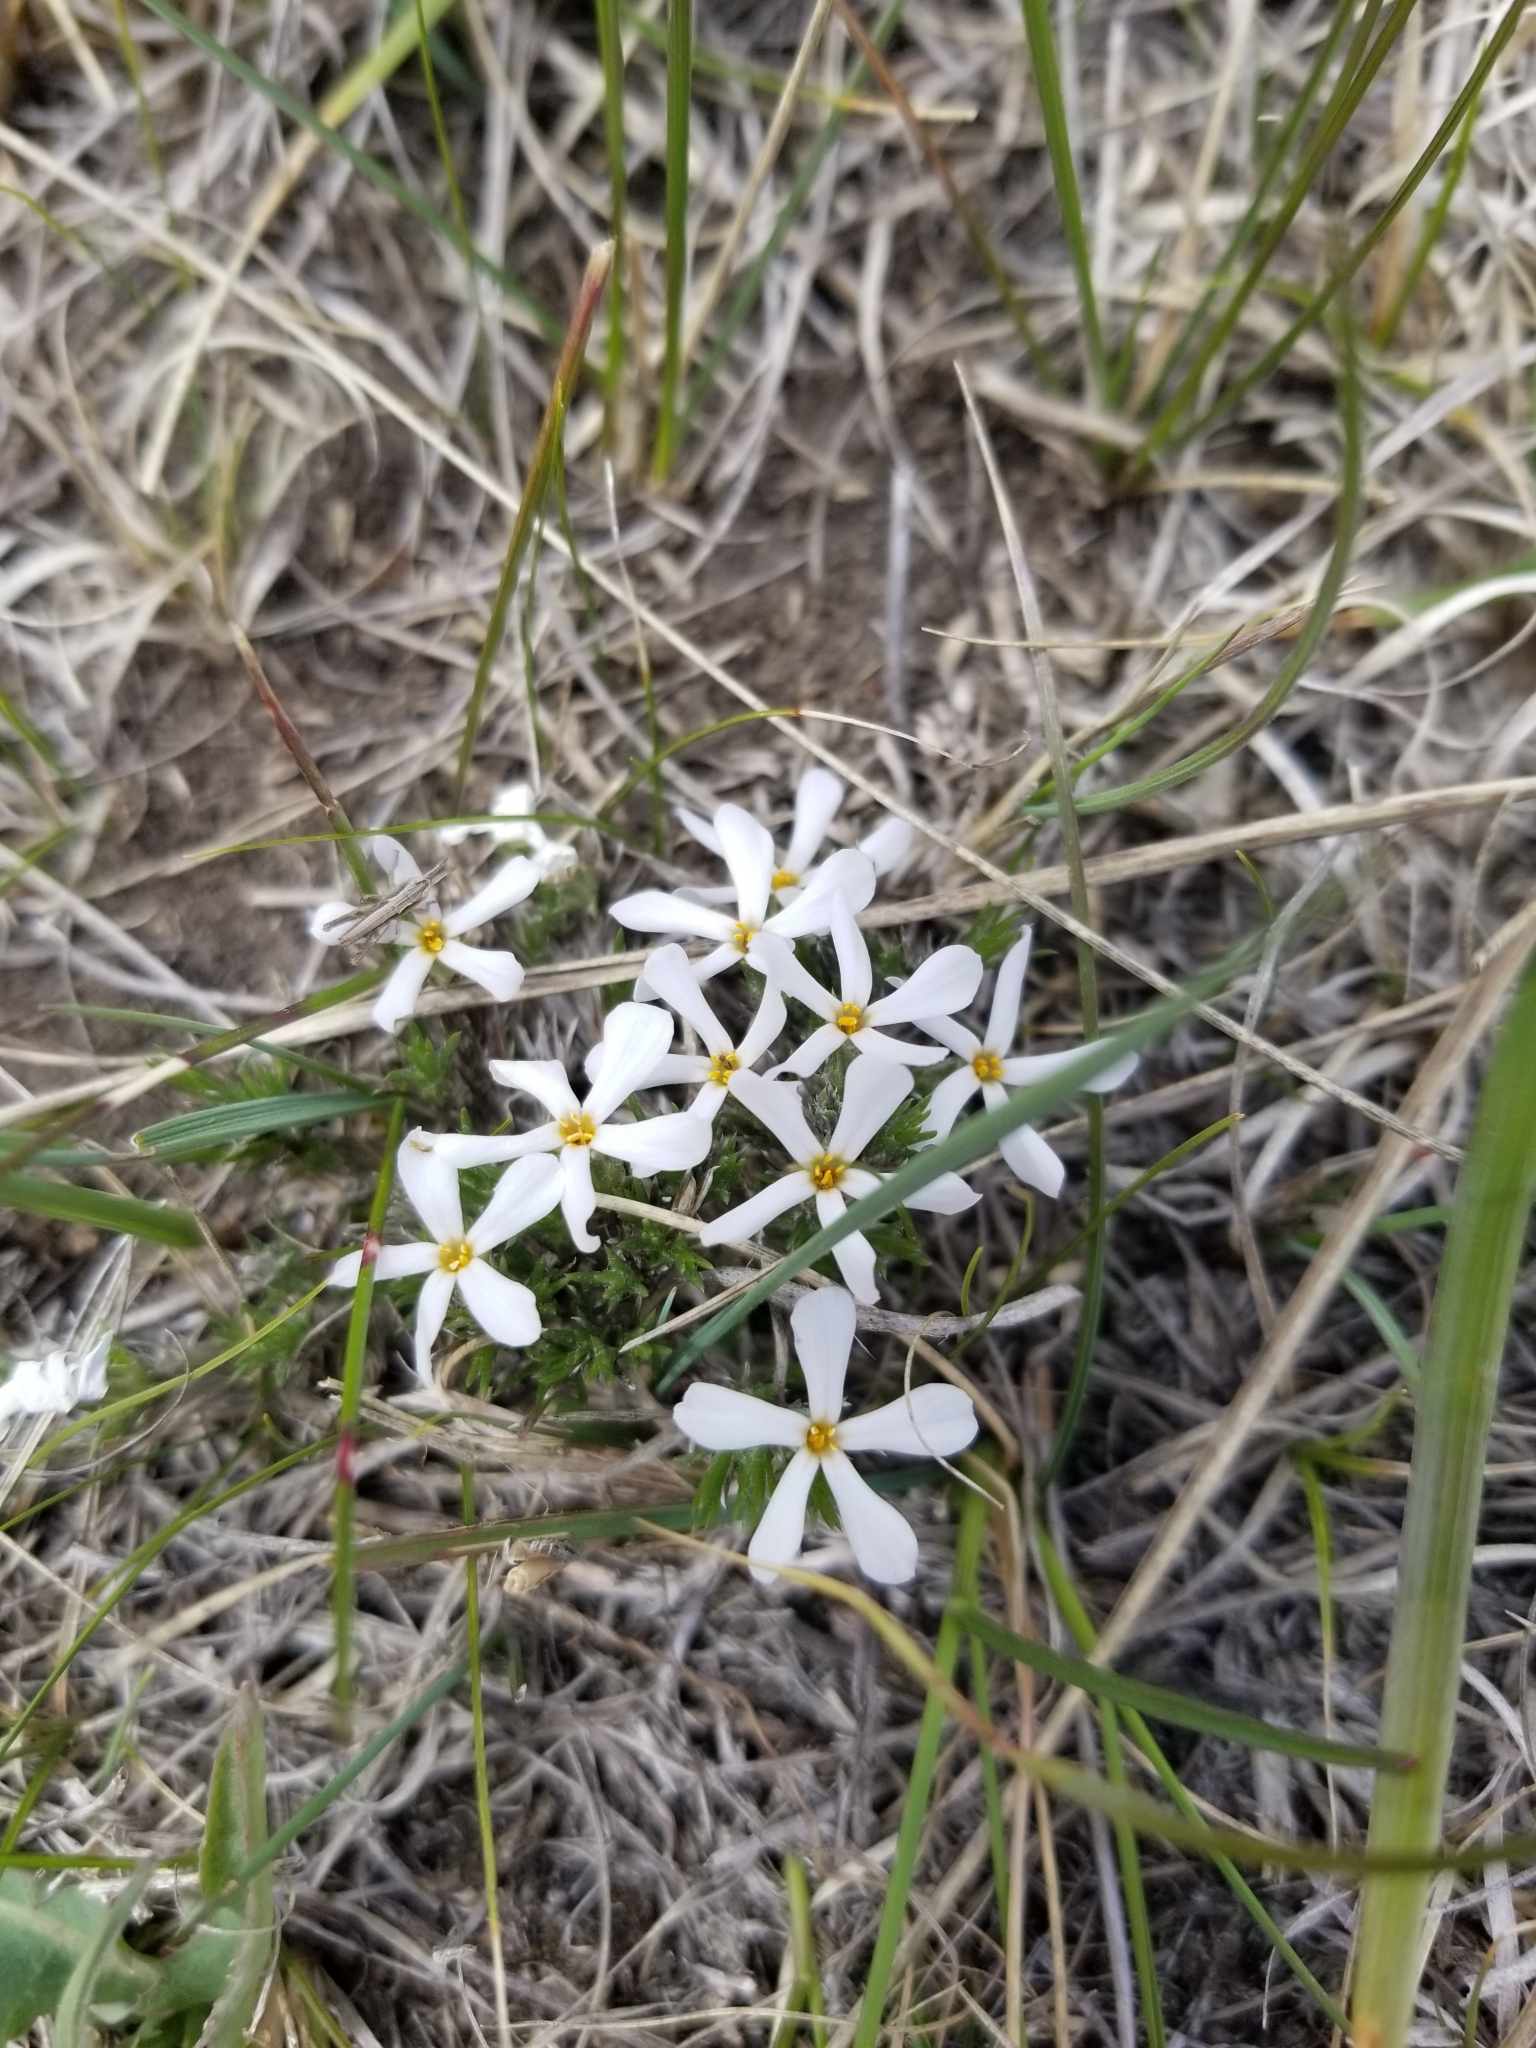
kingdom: Plantae
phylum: Tracheophyta
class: Magnoliopsida
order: Ericales
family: Polemoniaceae
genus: Phlox
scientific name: Phlox hoodii
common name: Moss phlox
